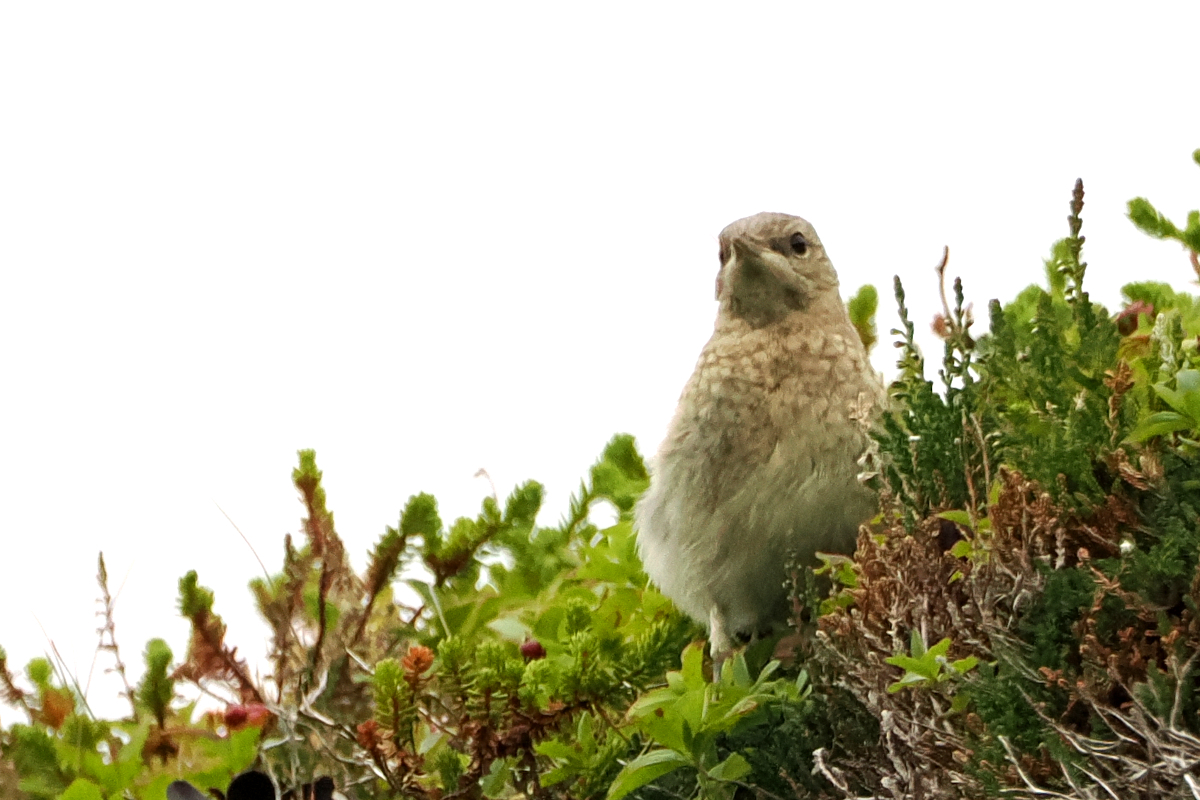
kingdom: Animalia
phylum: Chordata
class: Aves
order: Passeriformes
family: Muscicapidae
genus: Oenanthe
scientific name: Oenanthe oenanthe
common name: Northern wheatear
